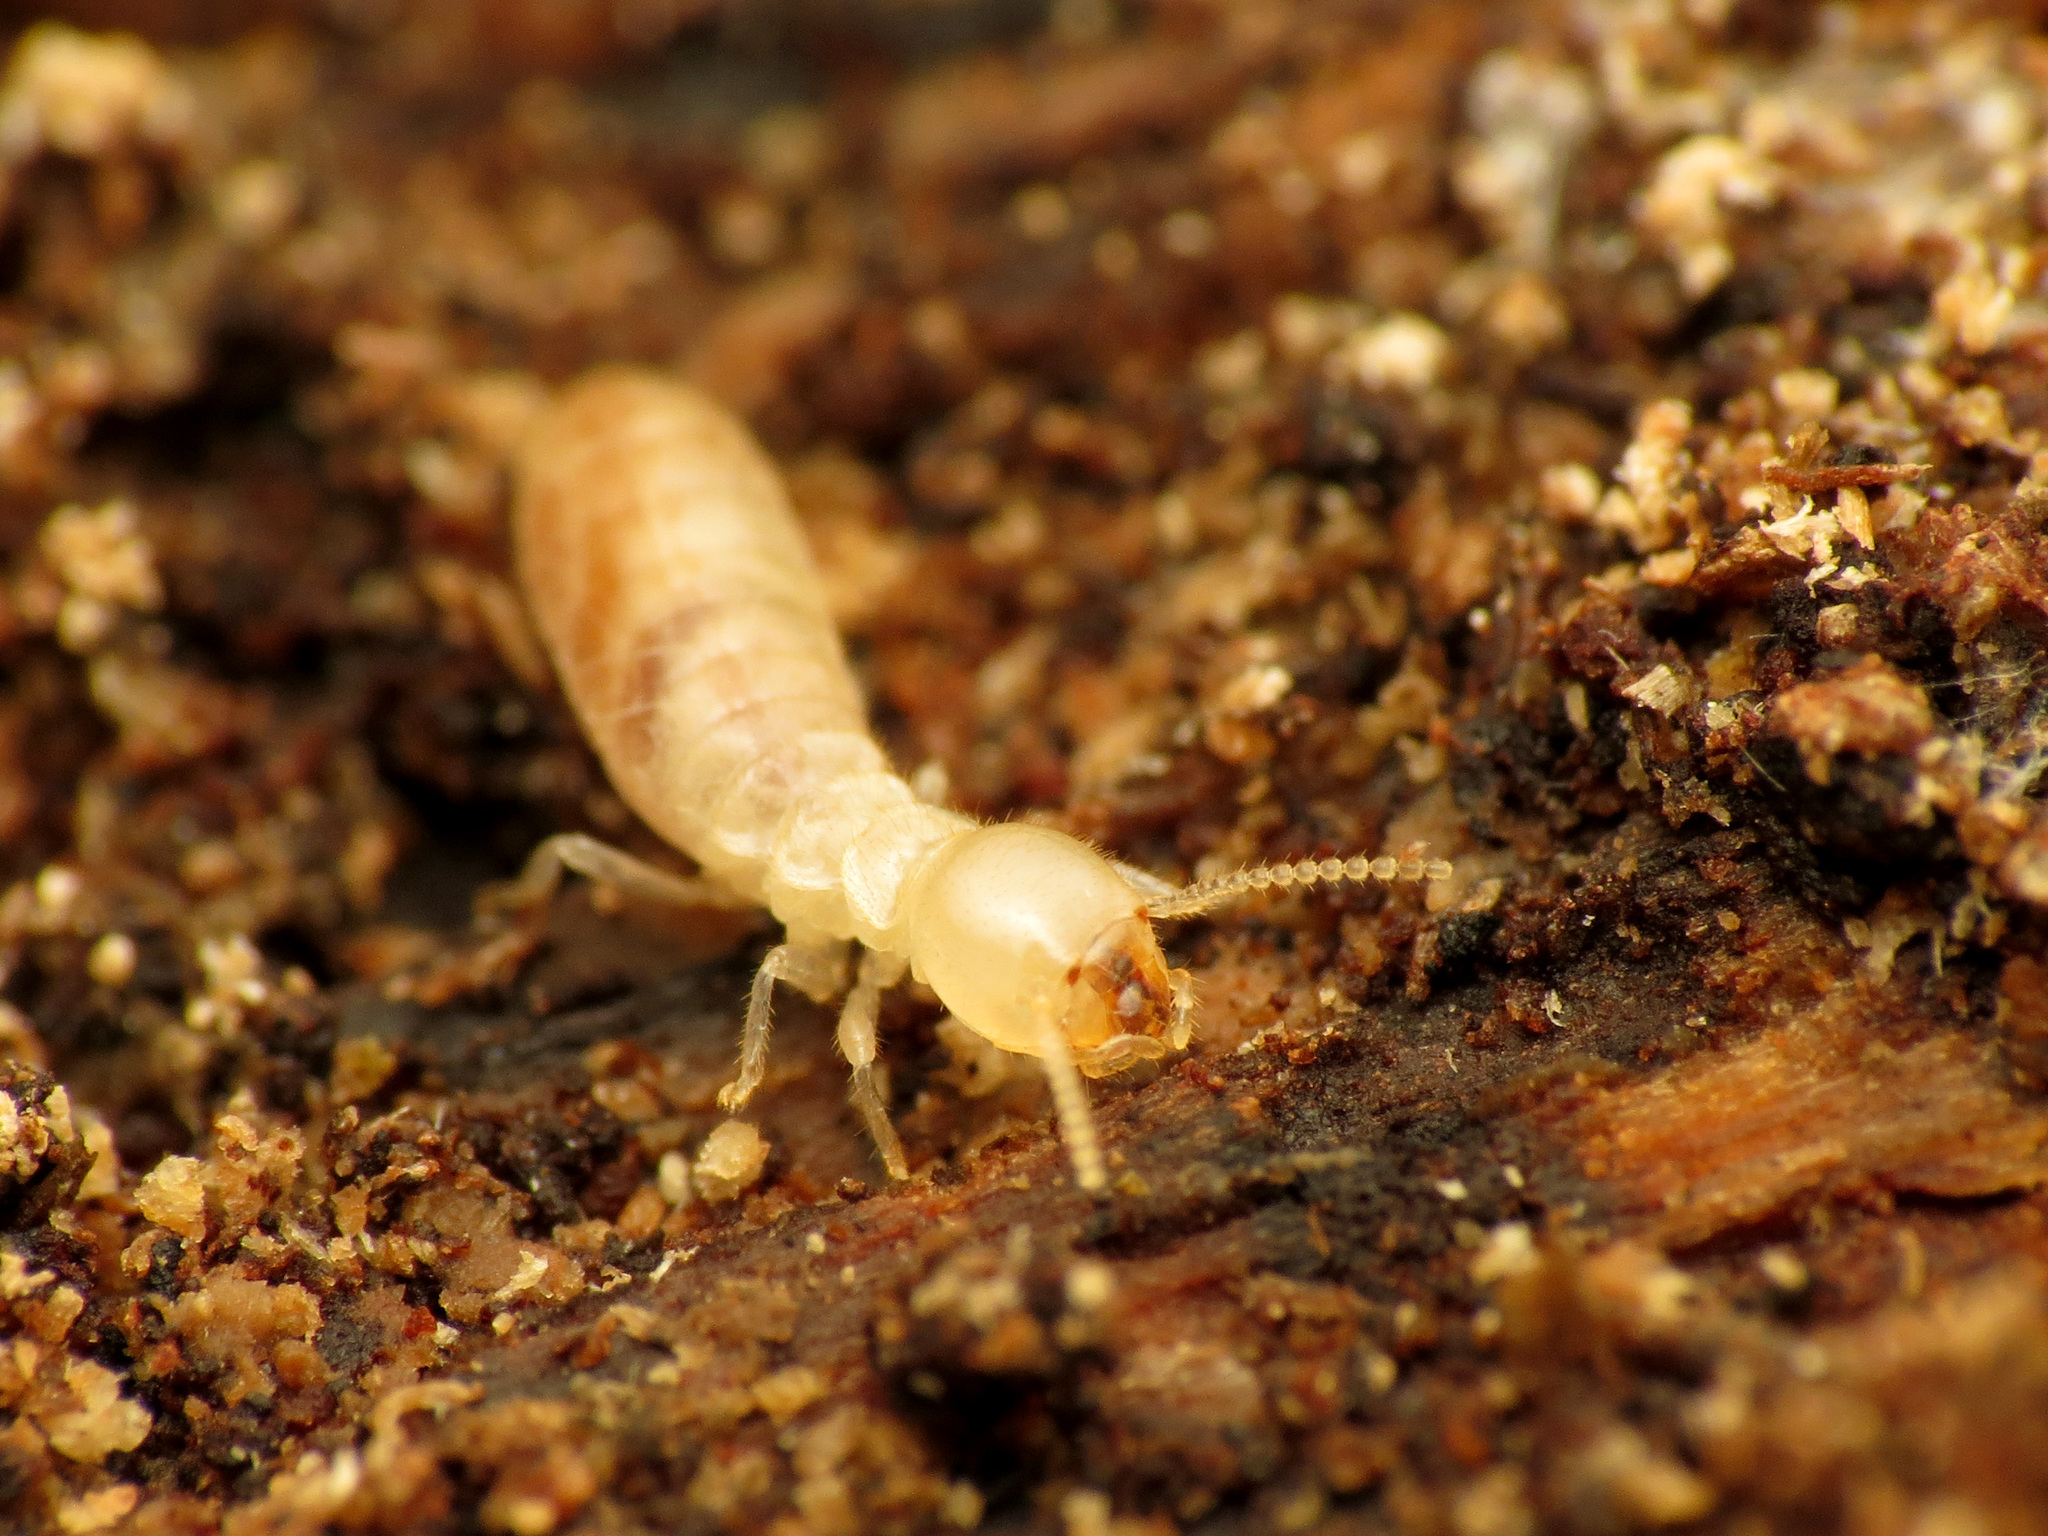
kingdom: Animalia
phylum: Arthropoda
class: Insecta
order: Blattodea
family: Rhinotermitidae
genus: Reticulitermes
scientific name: Reticulitermes flavipes
